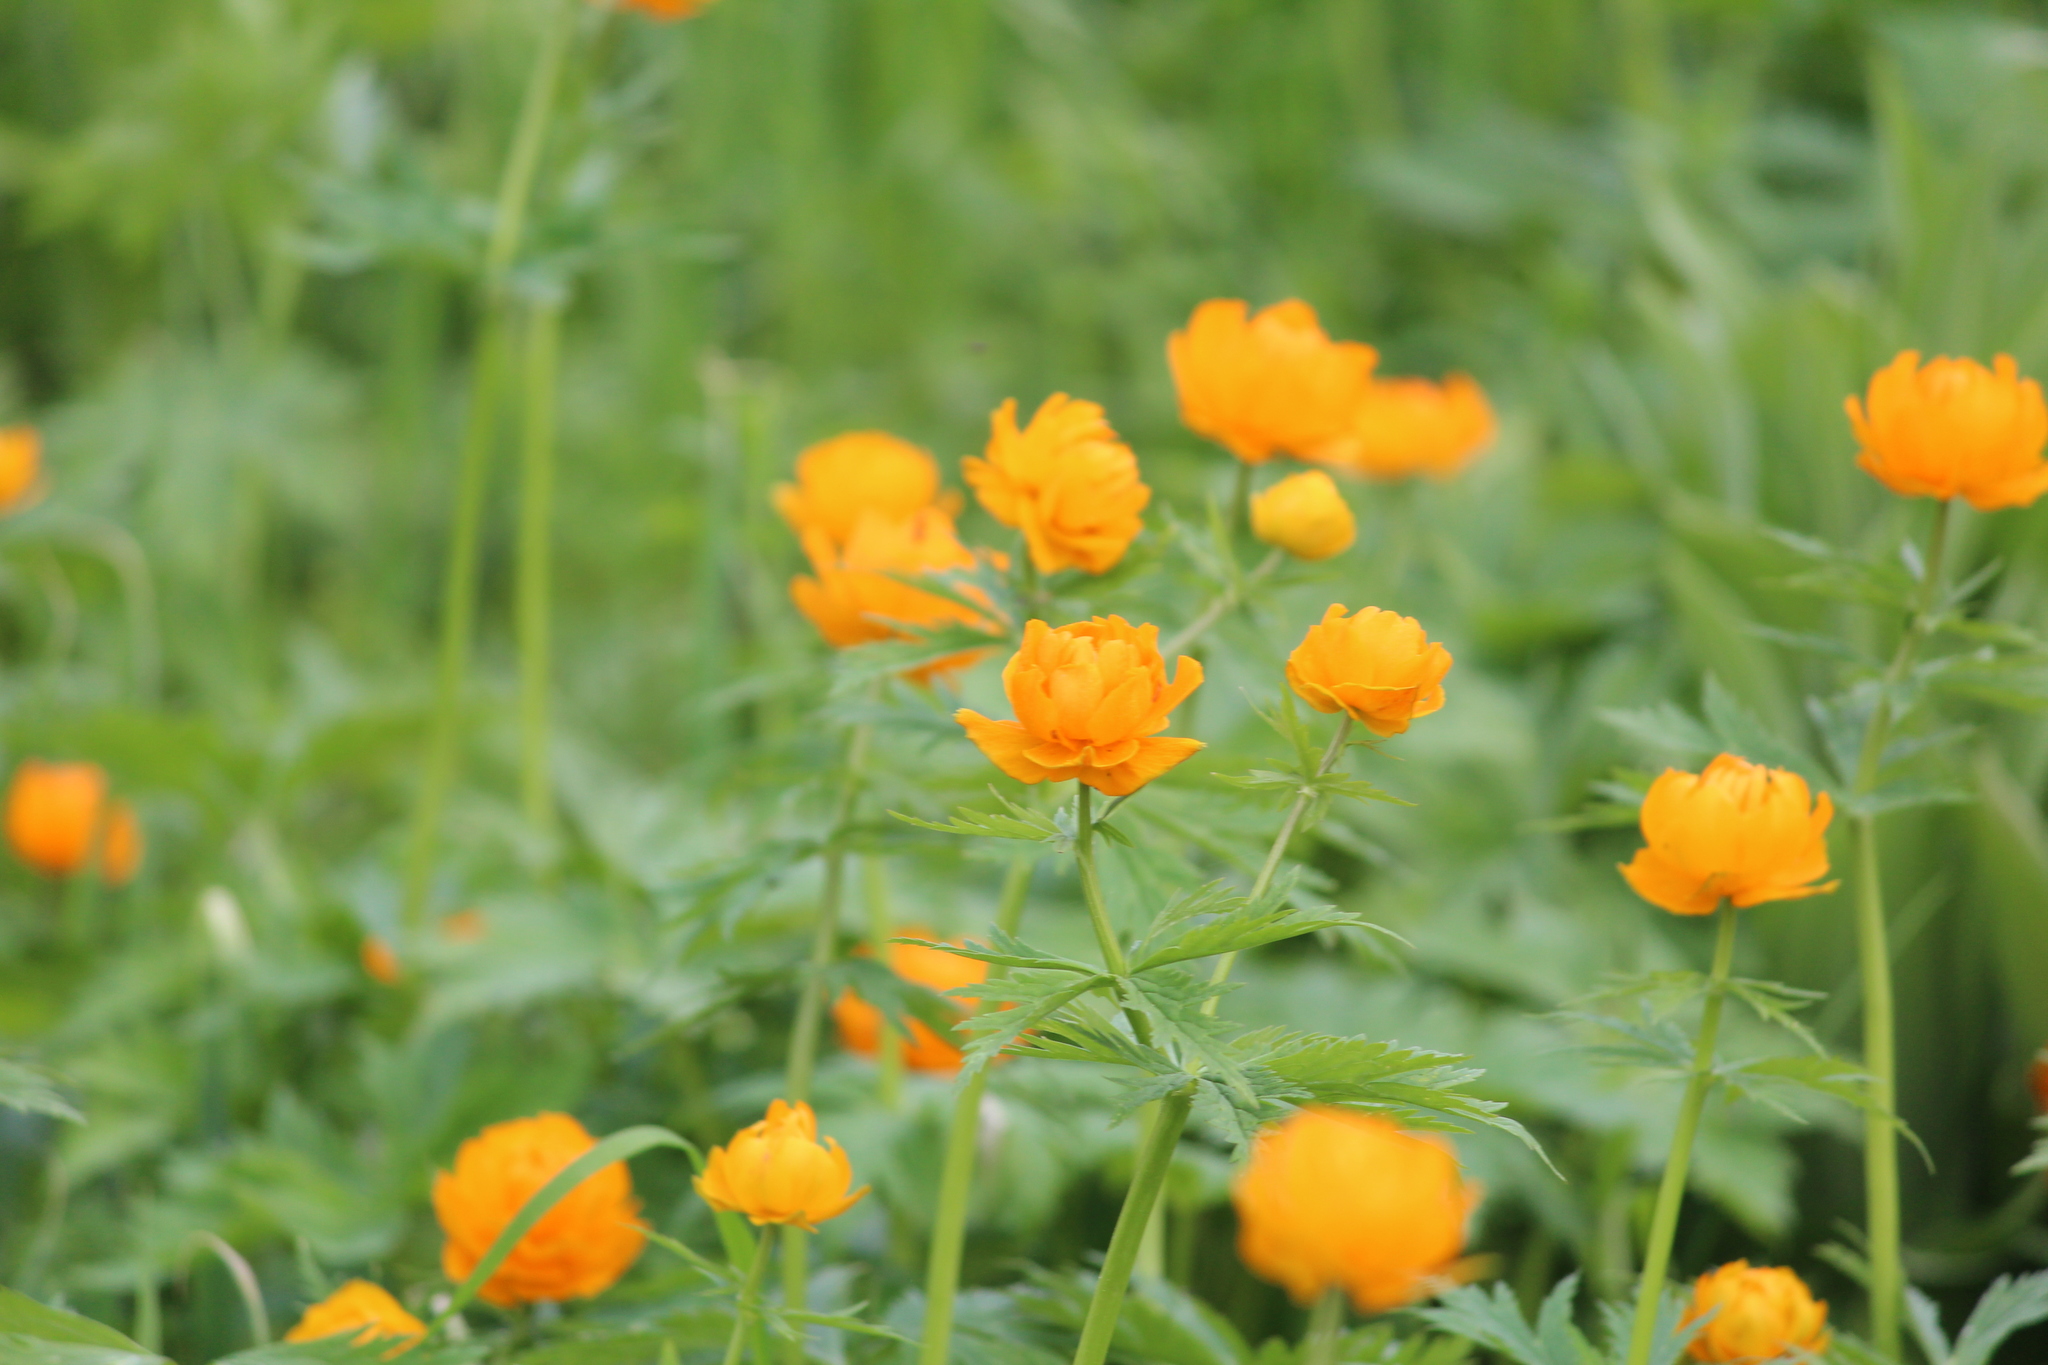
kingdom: Plantae
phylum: Tracheophyta
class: Magnoliopsida
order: Ranunculales
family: Ranunculaceae
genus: Trollius
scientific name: Trollius asiaticus
